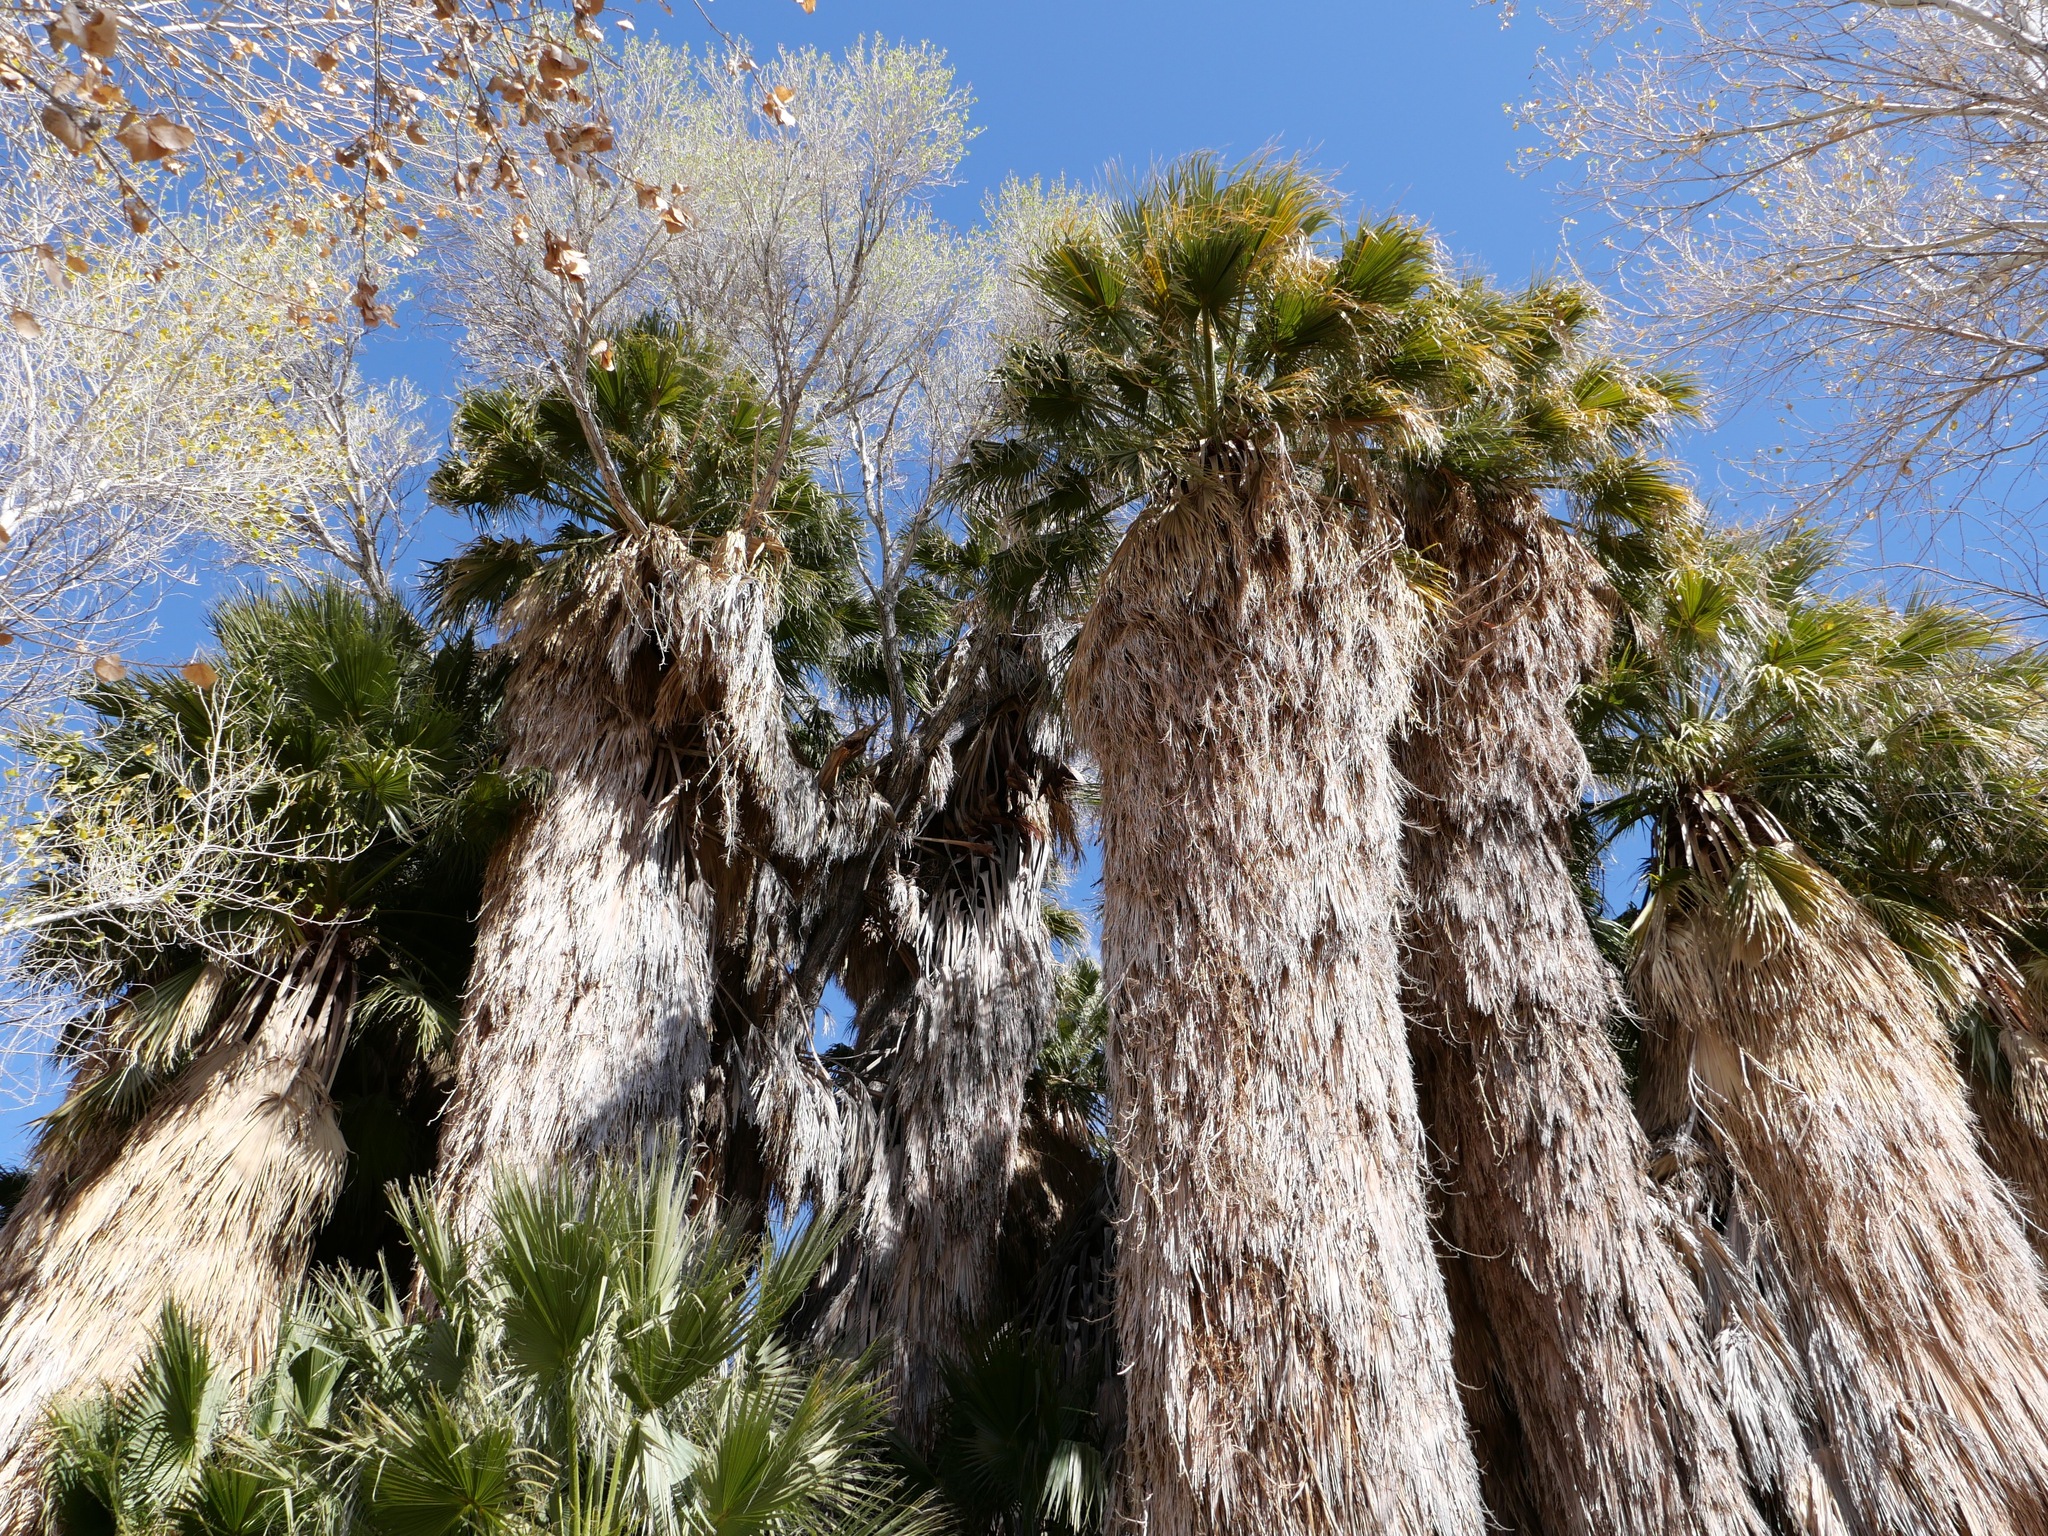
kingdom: Plantae
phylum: Tracheophyta
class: Liliopsida
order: Arecales
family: Arecaceae
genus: Washingtonia
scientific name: Washingtonia filifera
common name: California fan palm
